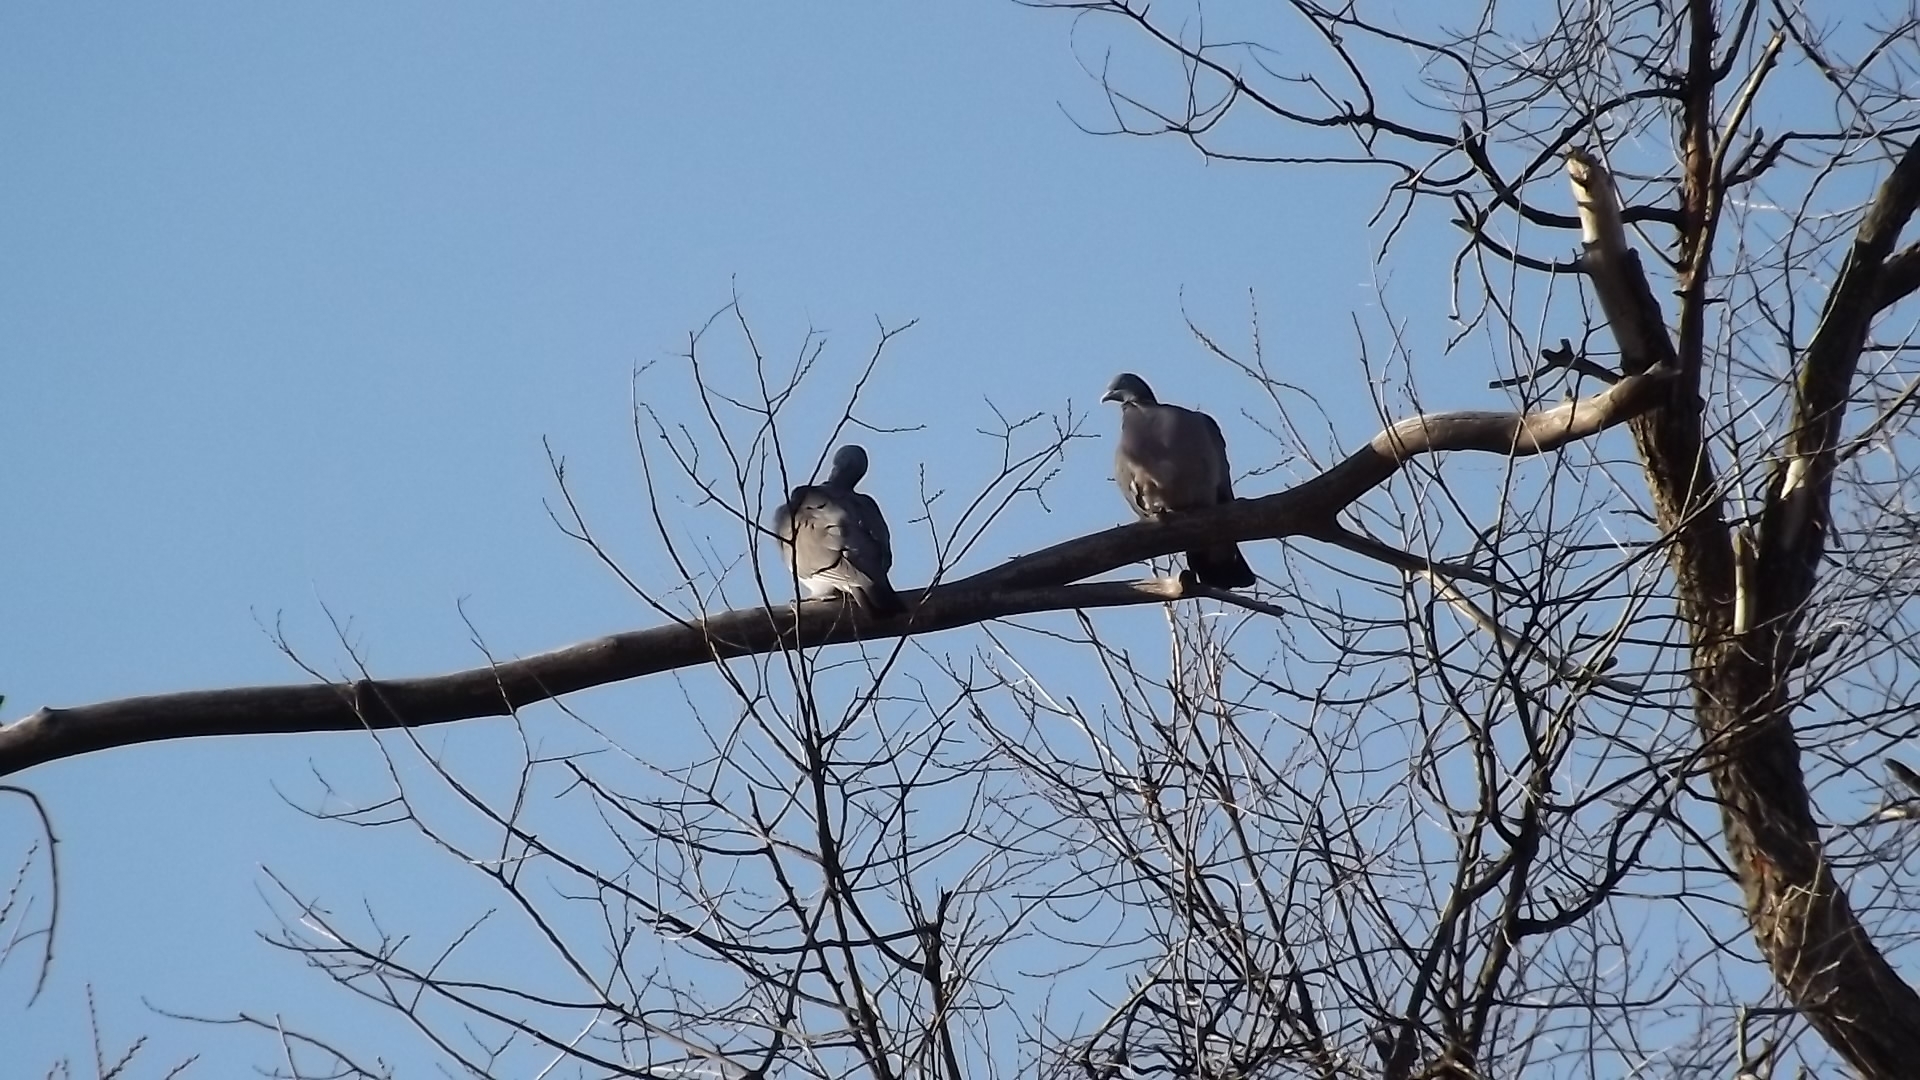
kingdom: Animalia
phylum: Chordata
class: Aves
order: Columbiformes
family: Columbidae
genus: Columba
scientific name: Columba palumbus
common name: Common wood pigeon
